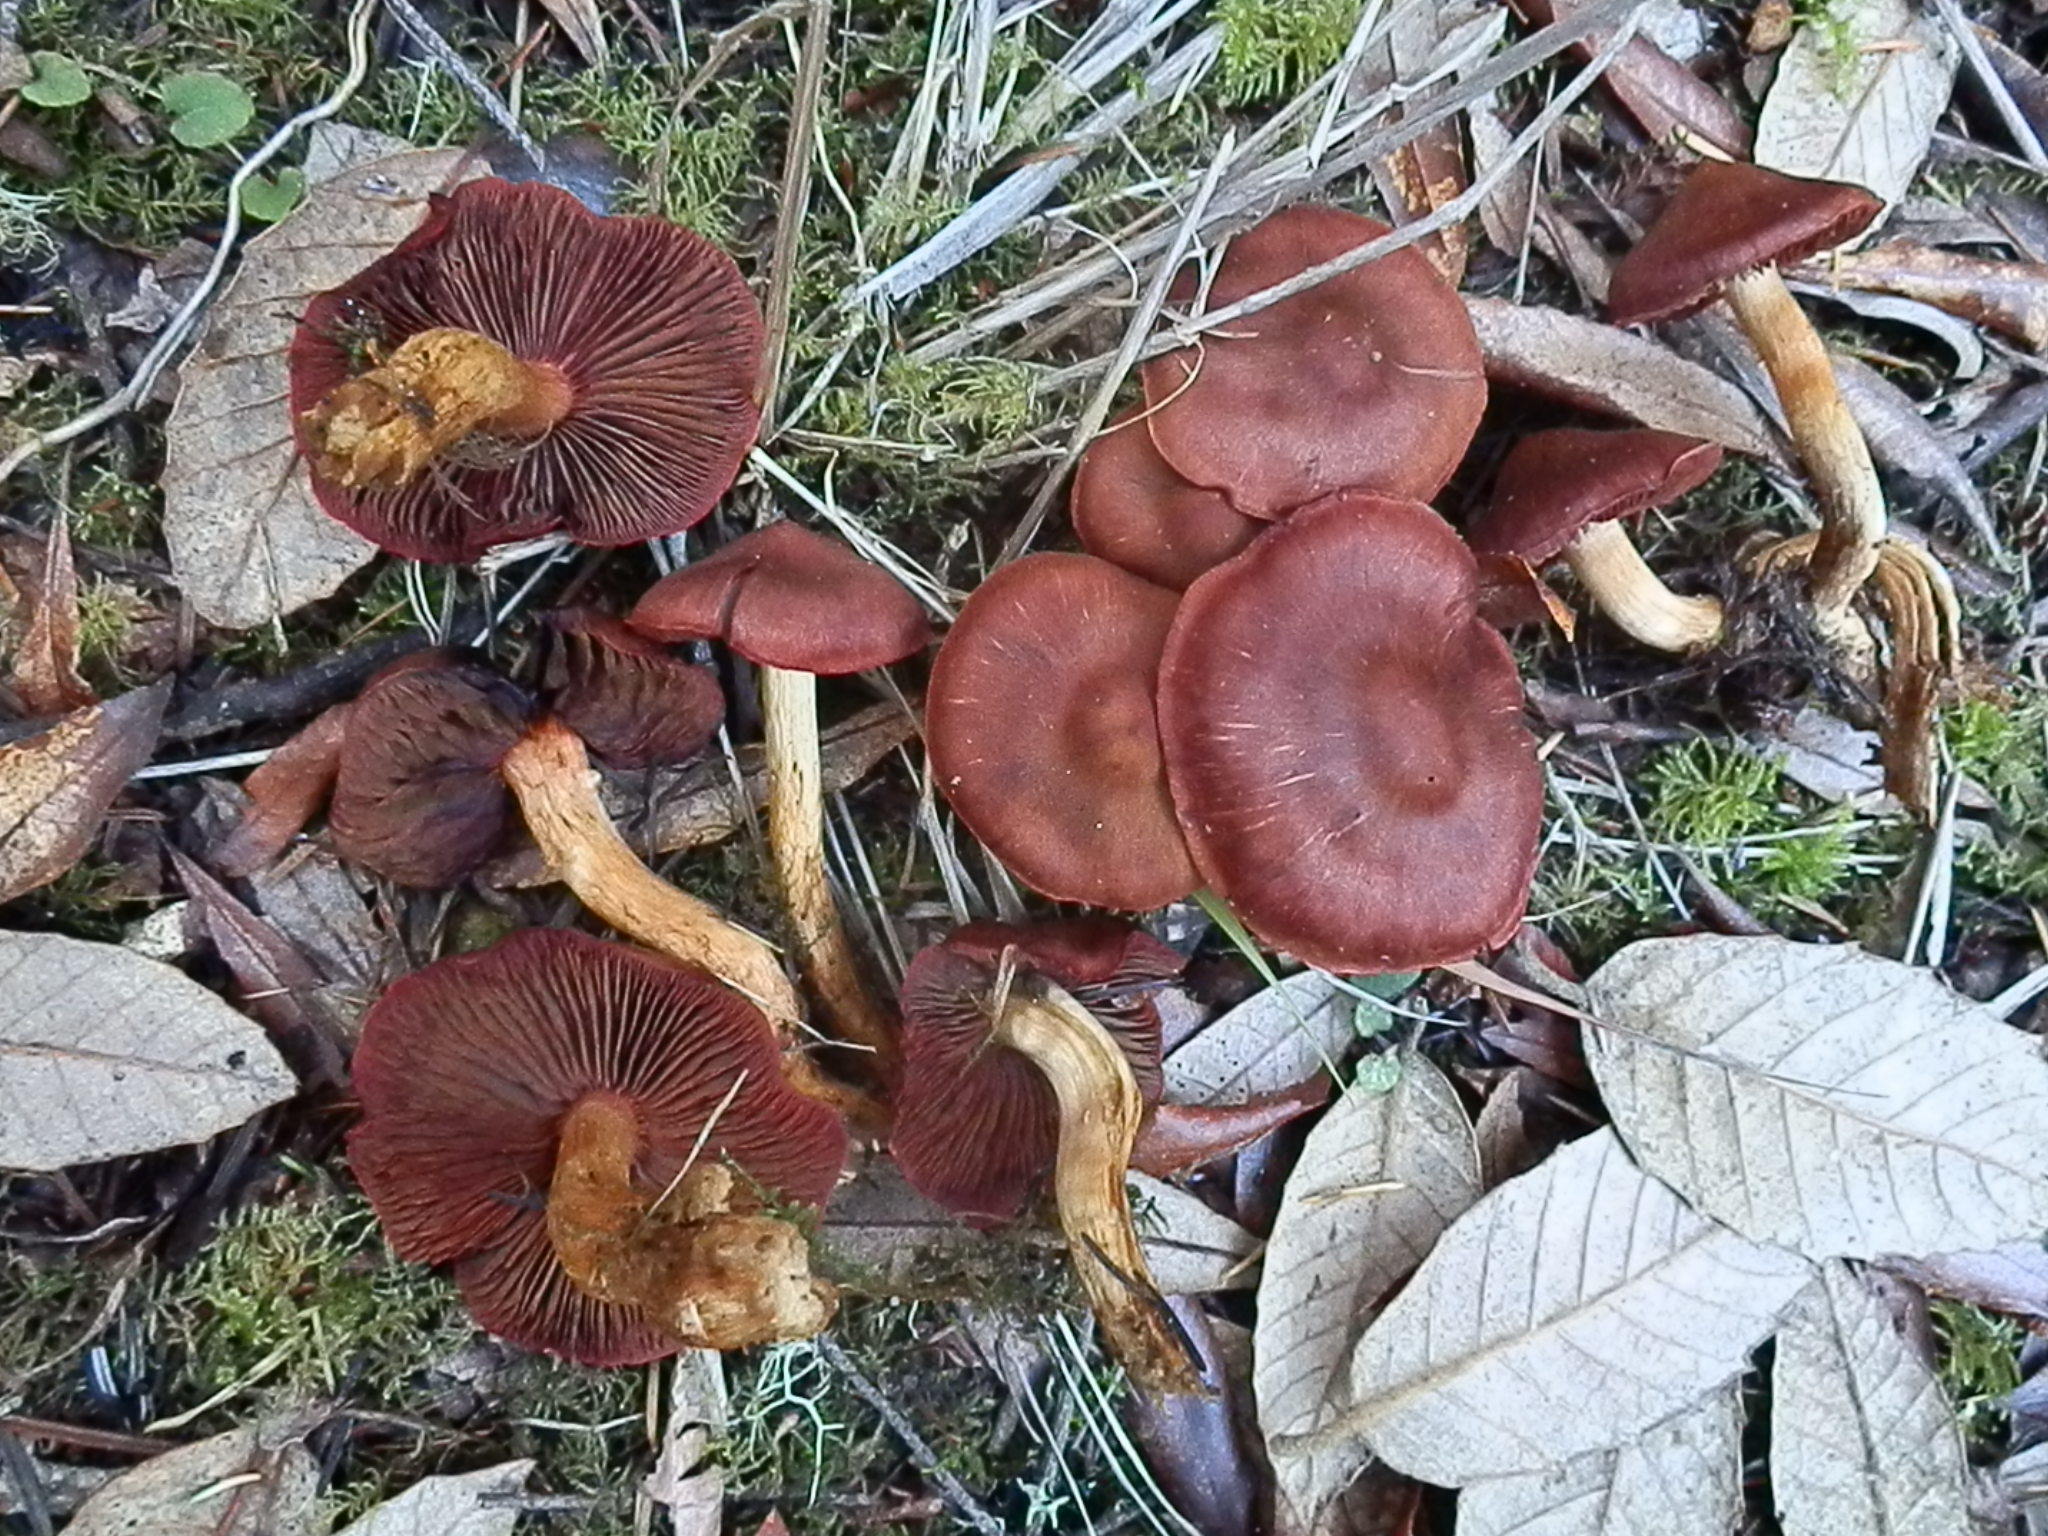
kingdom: Fungi
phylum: Basidiomycota
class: Agaricomycetes
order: Agaricales
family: Cortinariaceae
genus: Cortinarius
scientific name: Cortinarius smithii
